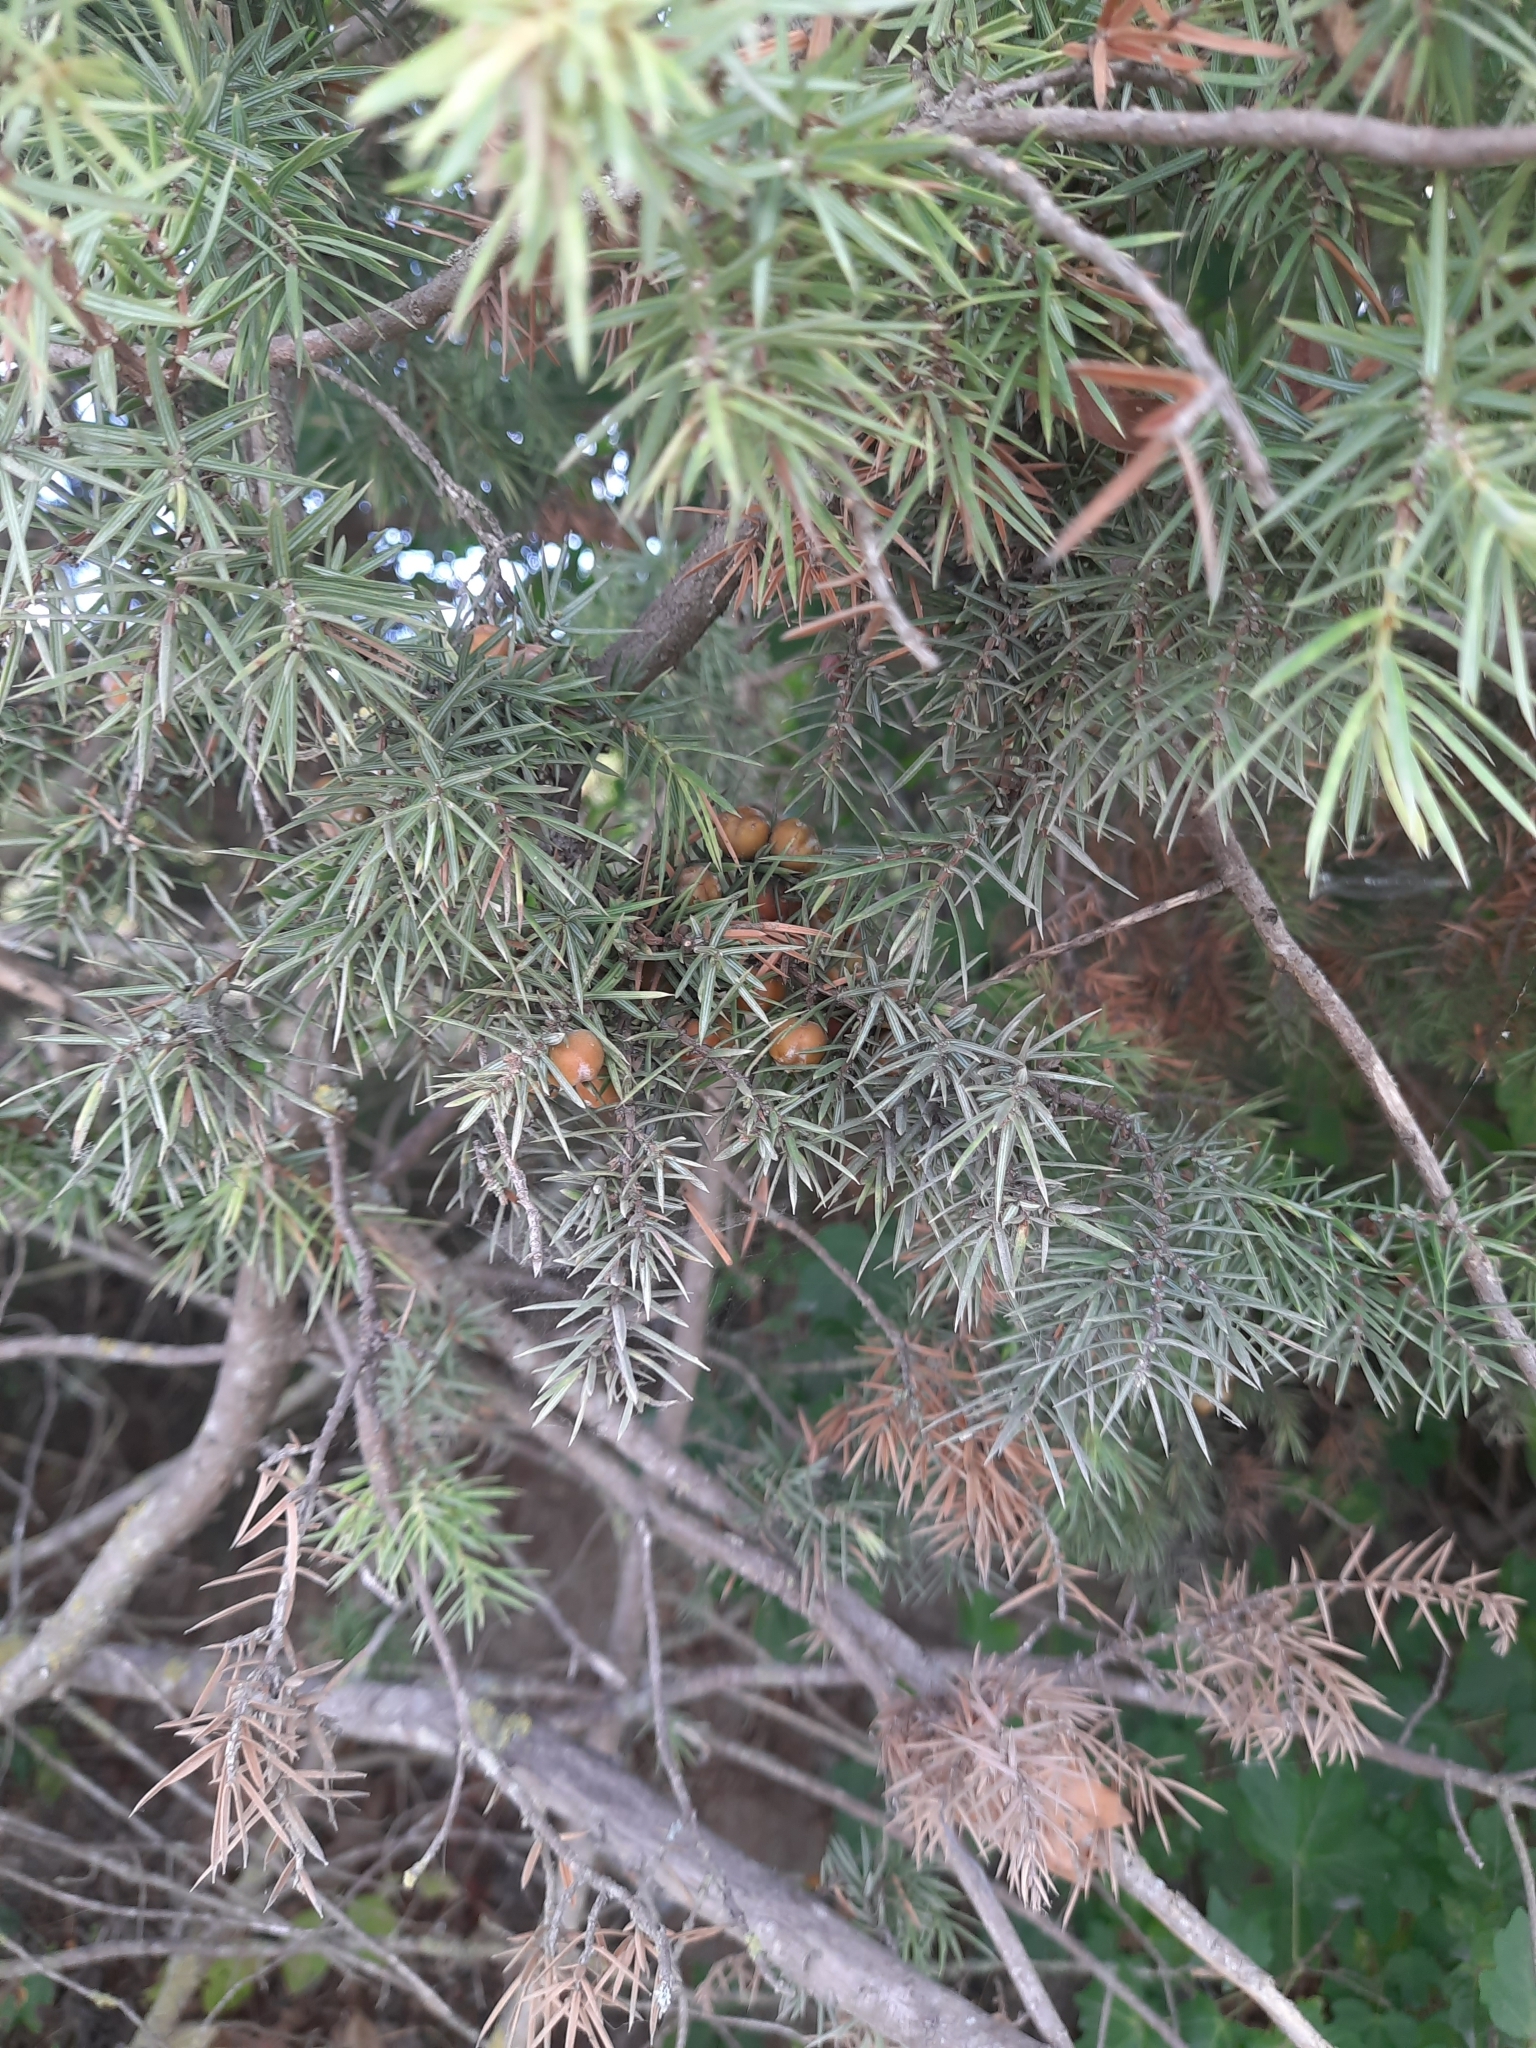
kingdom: Plantae
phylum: Tracheophyta
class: Pinopsida
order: Pinales
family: Cupressaceae
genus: Juniperus
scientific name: Juniperus oxycedrus
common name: Prickly juniper
